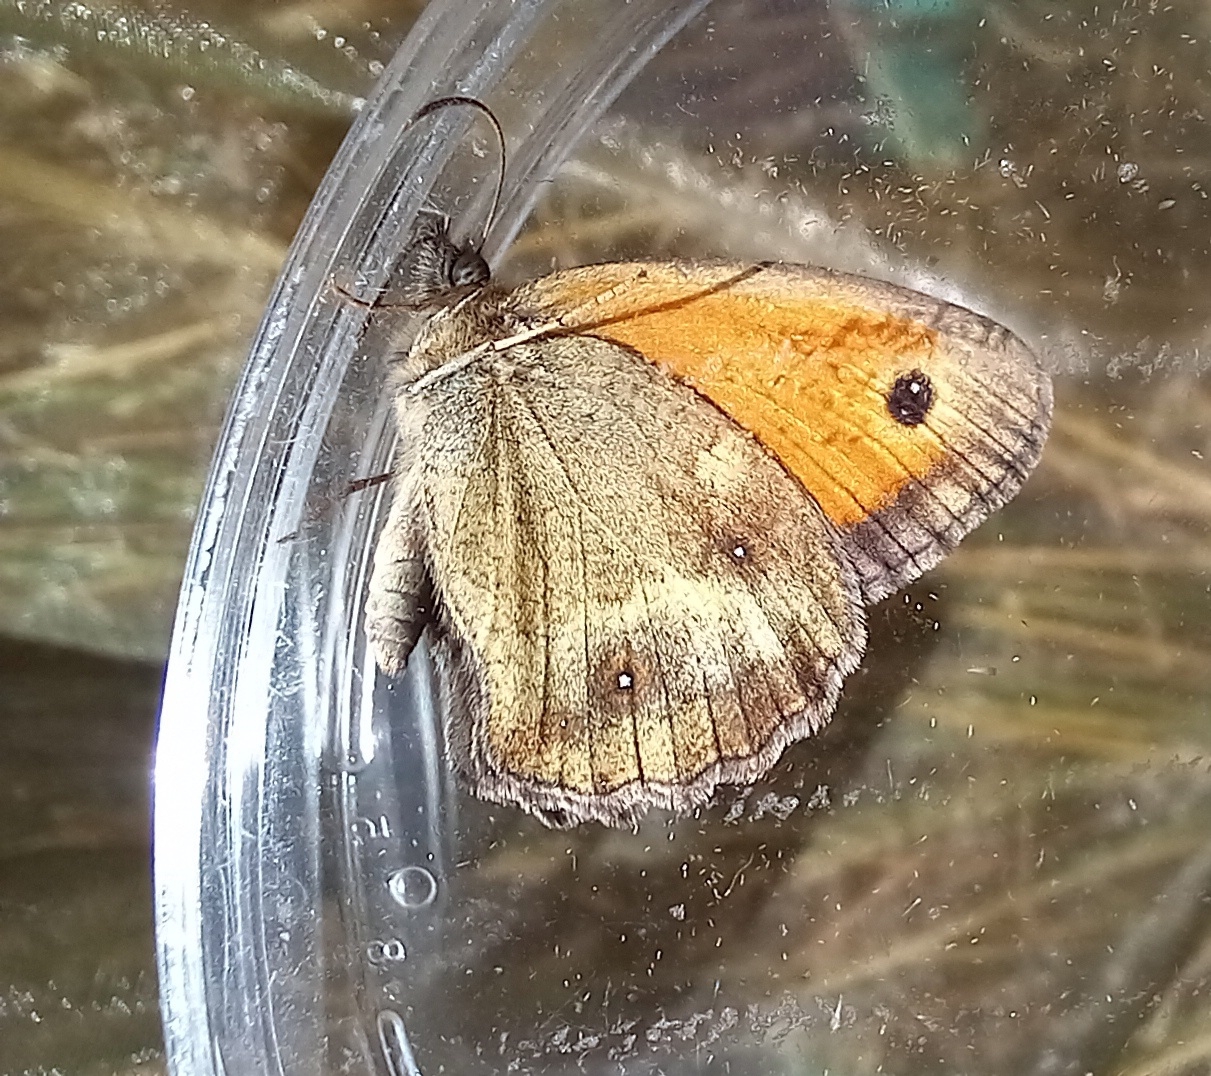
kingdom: Animalia
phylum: Arthropoda
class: Insecta
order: Lepidoptera
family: Nymphalidae
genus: Pyronia
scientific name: Pyronia tithonus
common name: Gatekeeper
